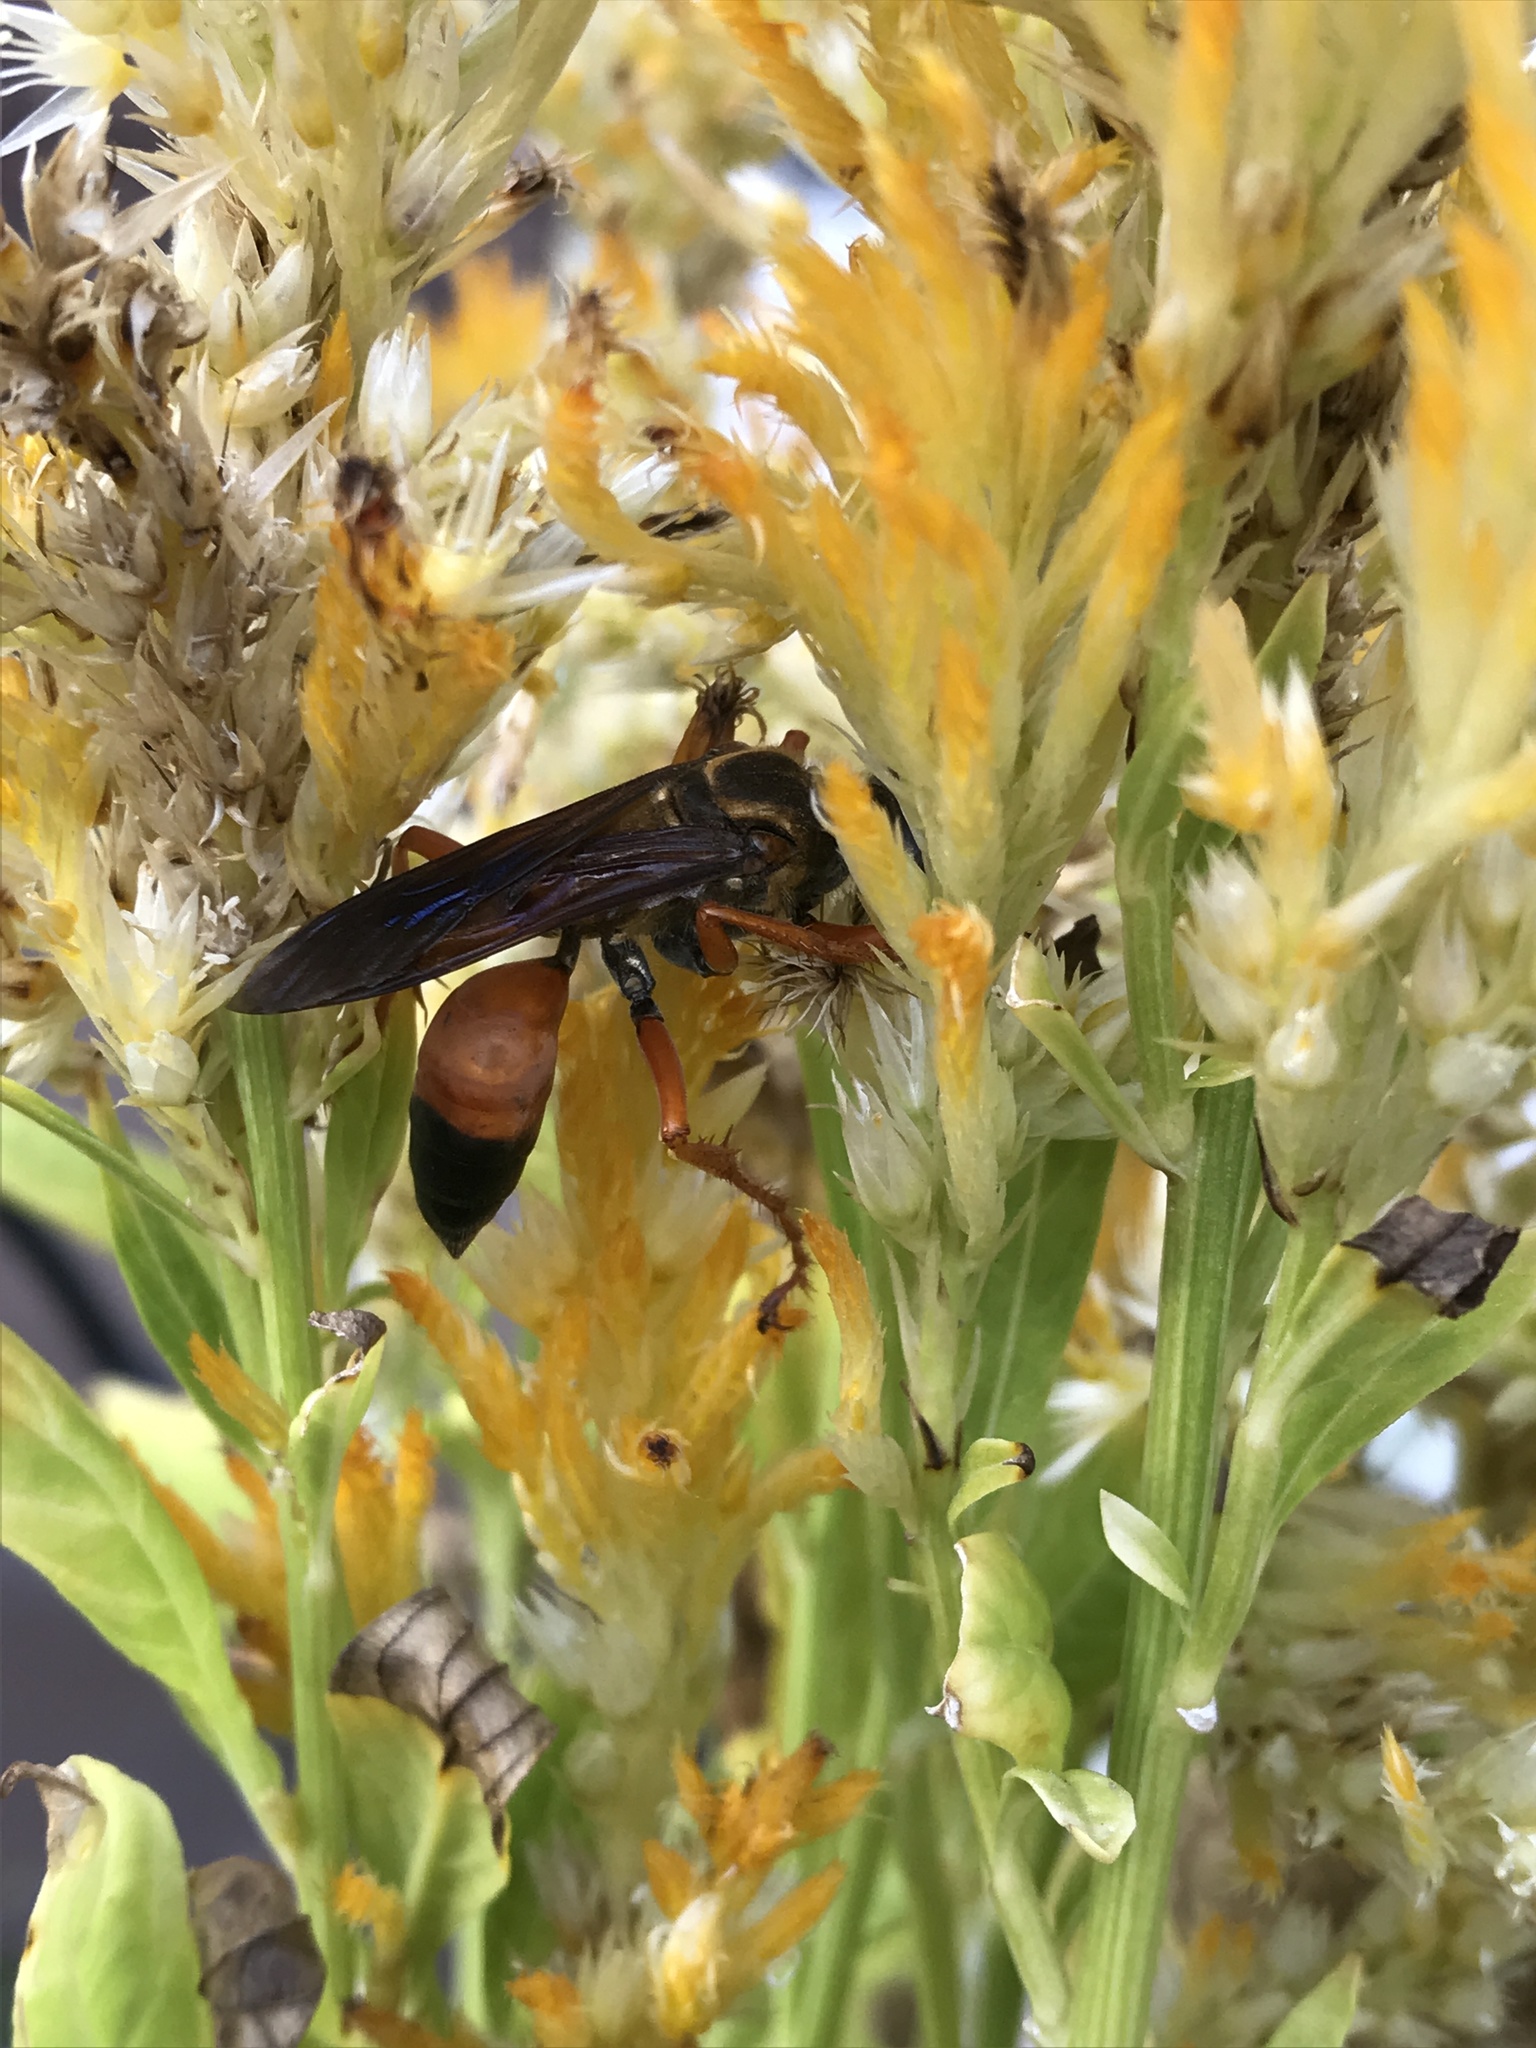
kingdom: Animalia
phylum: Arthropoda
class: Insecta
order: Hymenoptera
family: Sphecidae
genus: Sphex
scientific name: Sphex ichneumoneus
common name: Great golden digger wasp
